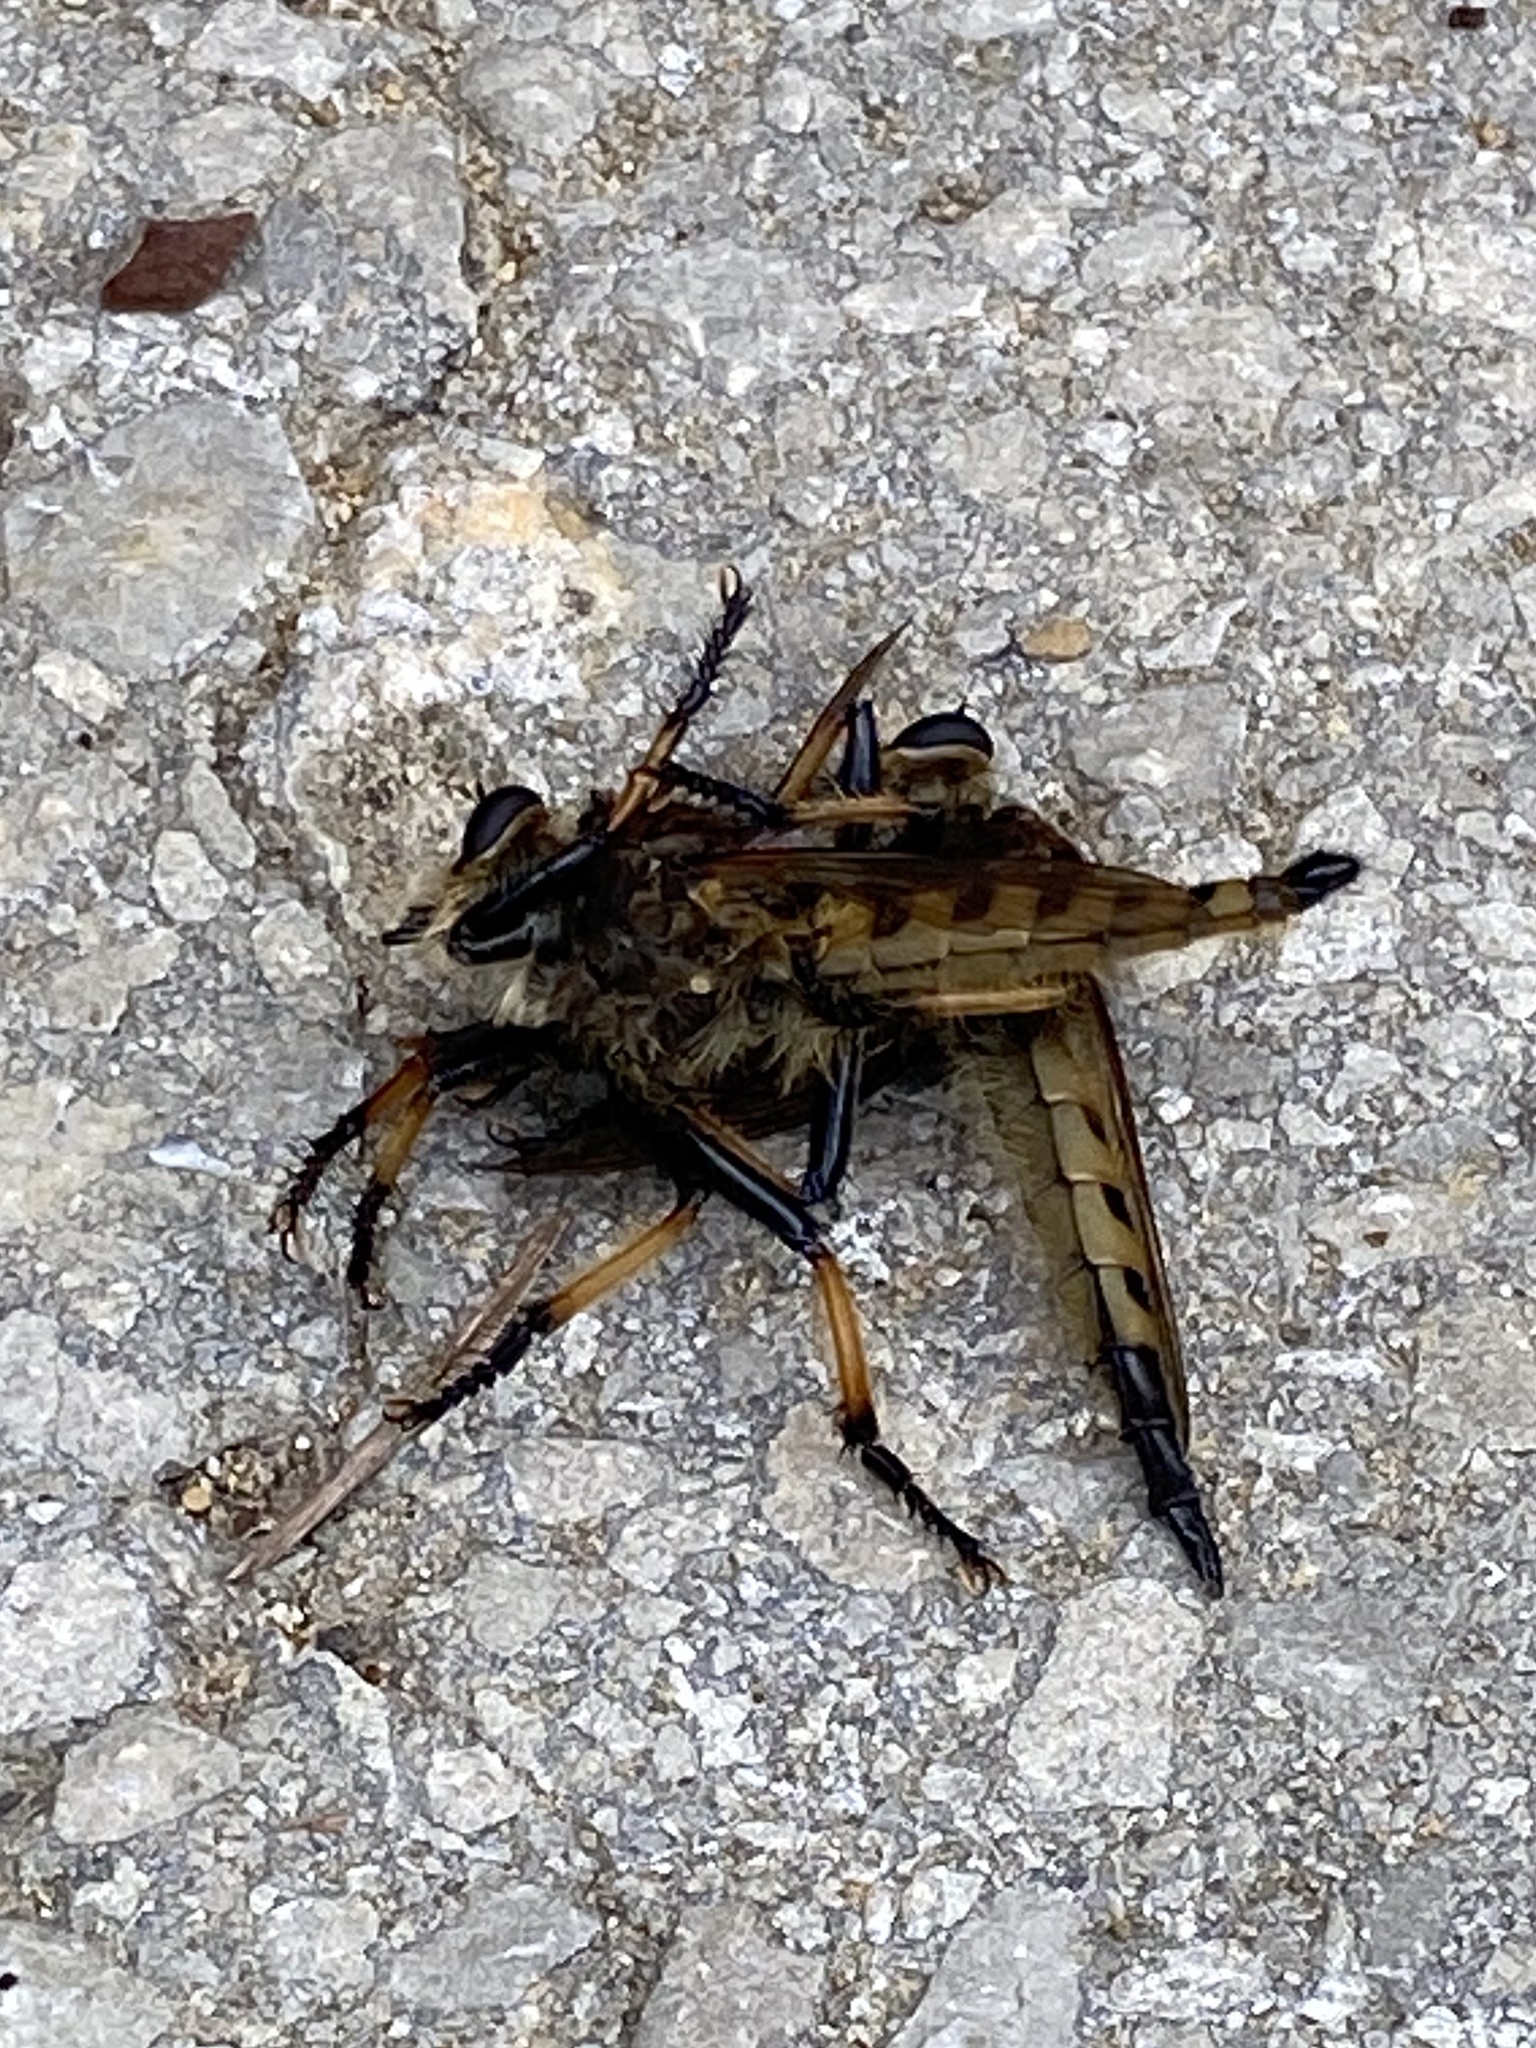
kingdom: Animalia
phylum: Arthropoda
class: Insecta
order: Diptera
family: Asilidae
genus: Promachus
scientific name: Promachus rufipes
